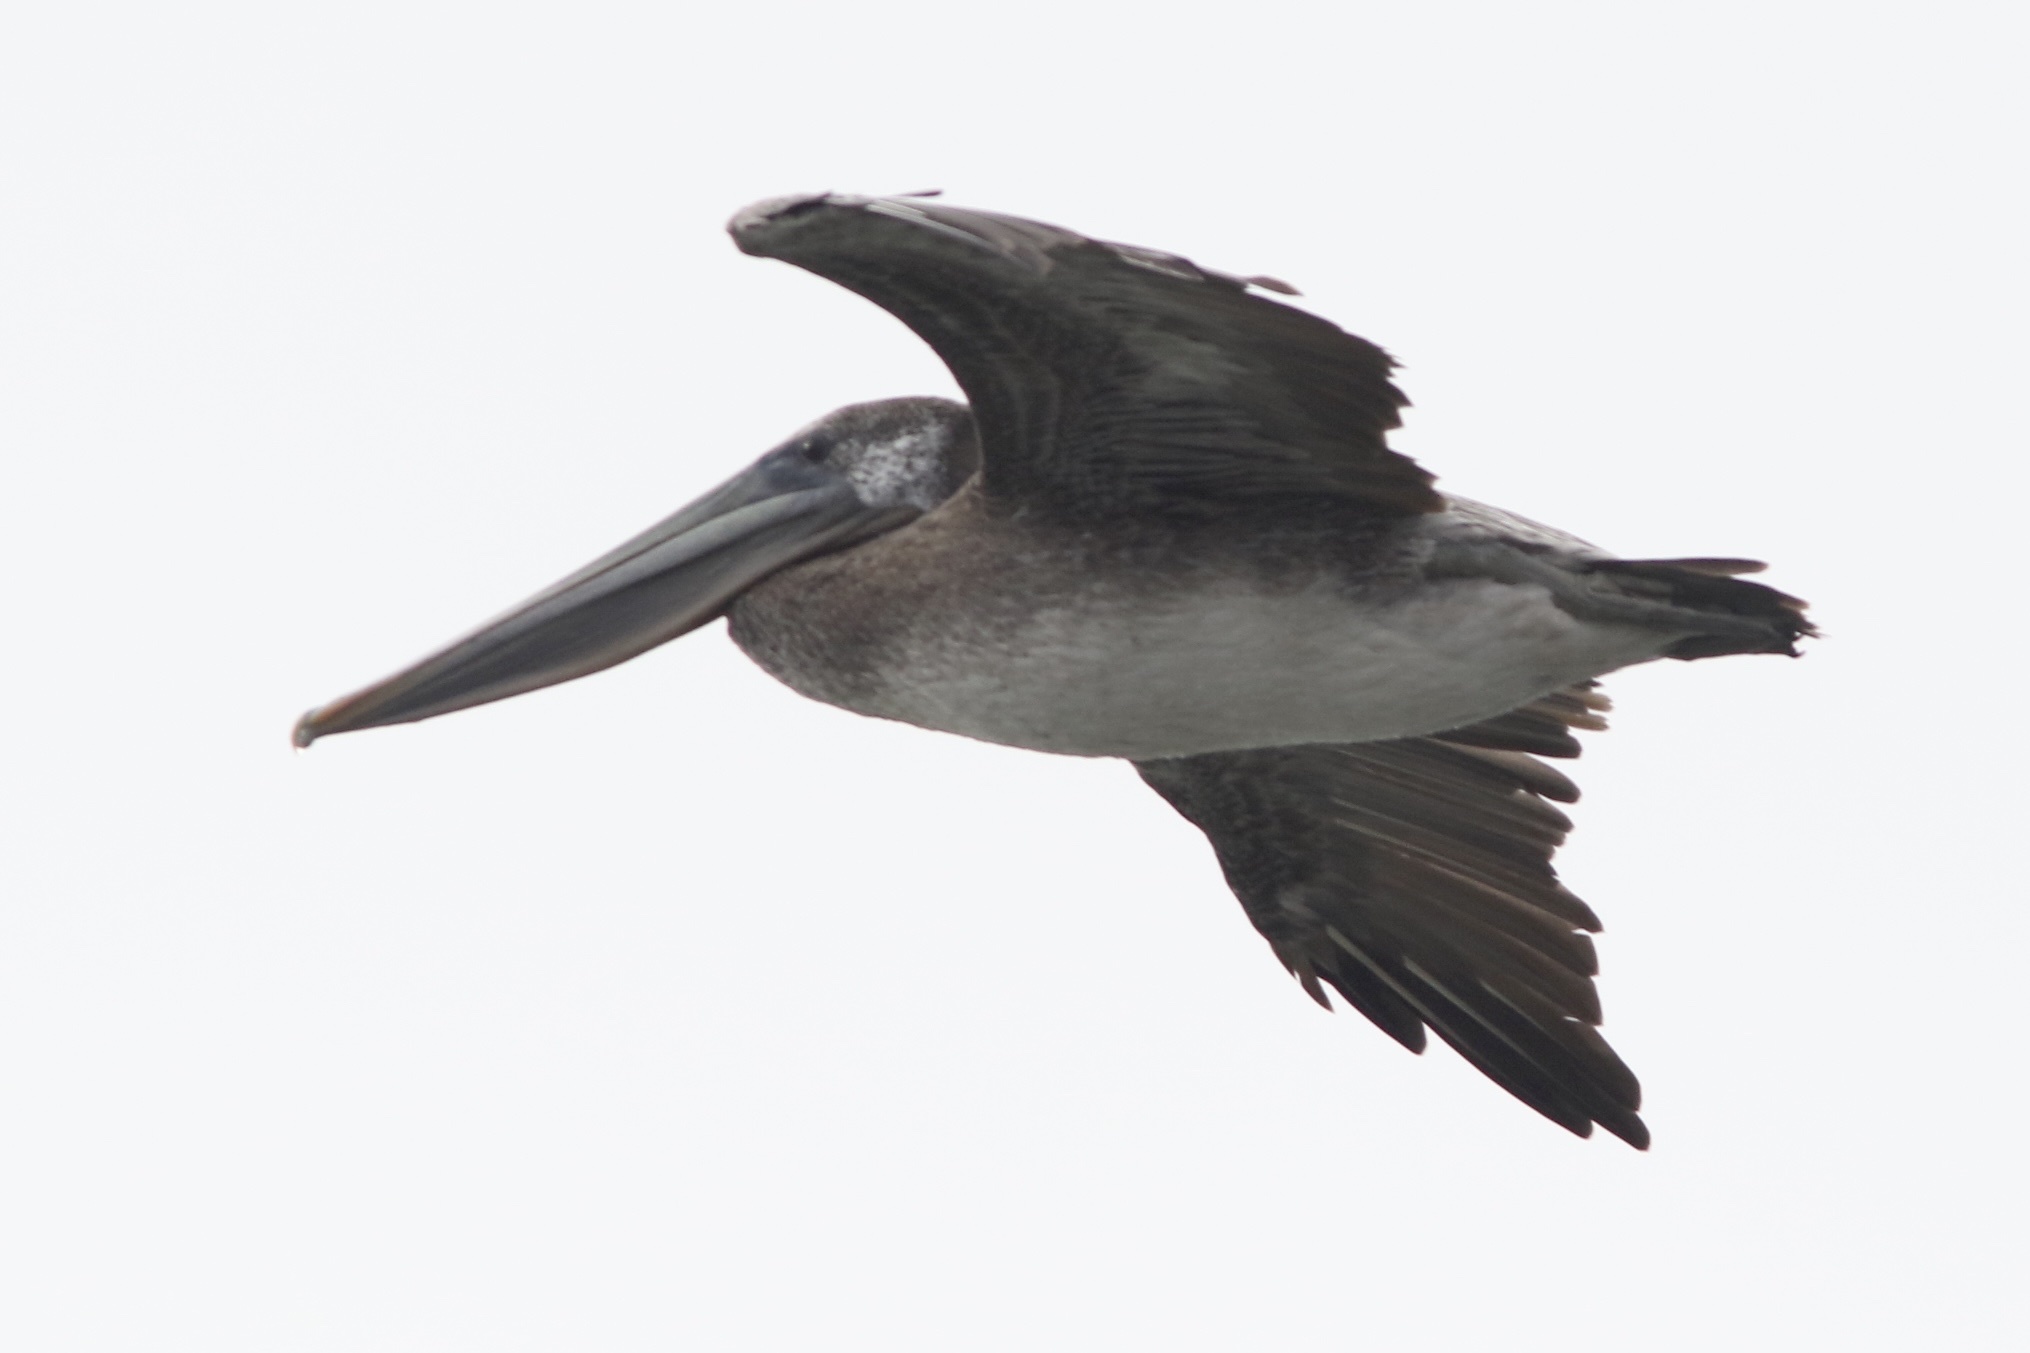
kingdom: Animalia
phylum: Chordata
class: Aves
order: Pelecaniformes
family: Pelecanidae
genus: Pelecanus
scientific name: Pelecanus occidentalis
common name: Brown pelican
